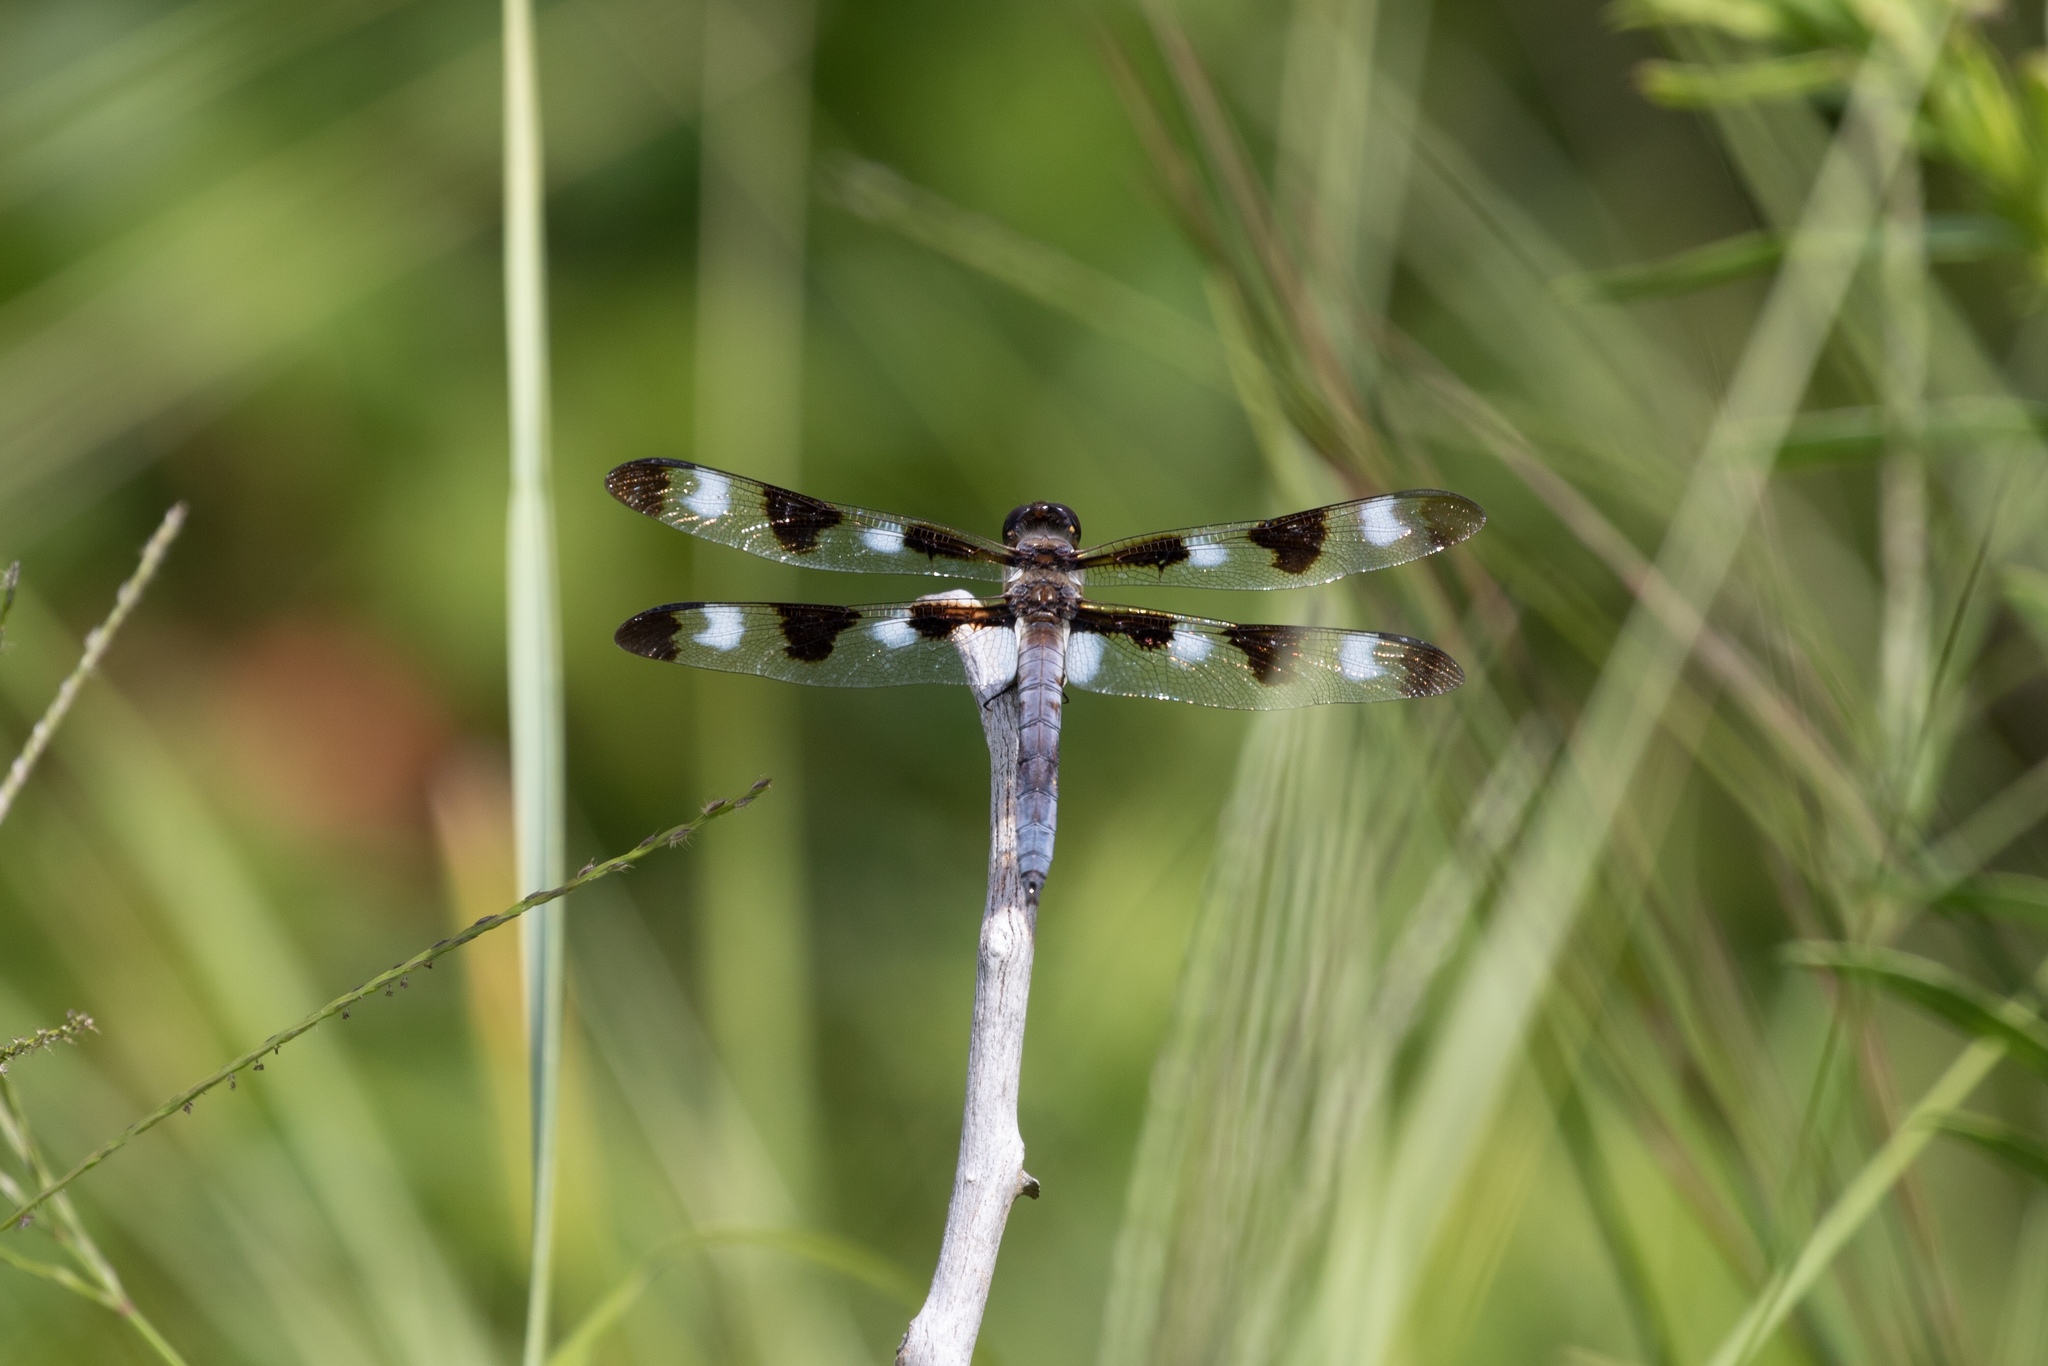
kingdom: Animalia
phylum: Arthropoda
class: Insecta
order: Odonata
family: Libellulidae
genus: Libellula
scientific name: Libellula pulchella
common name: Twelve-spotted skimmer
